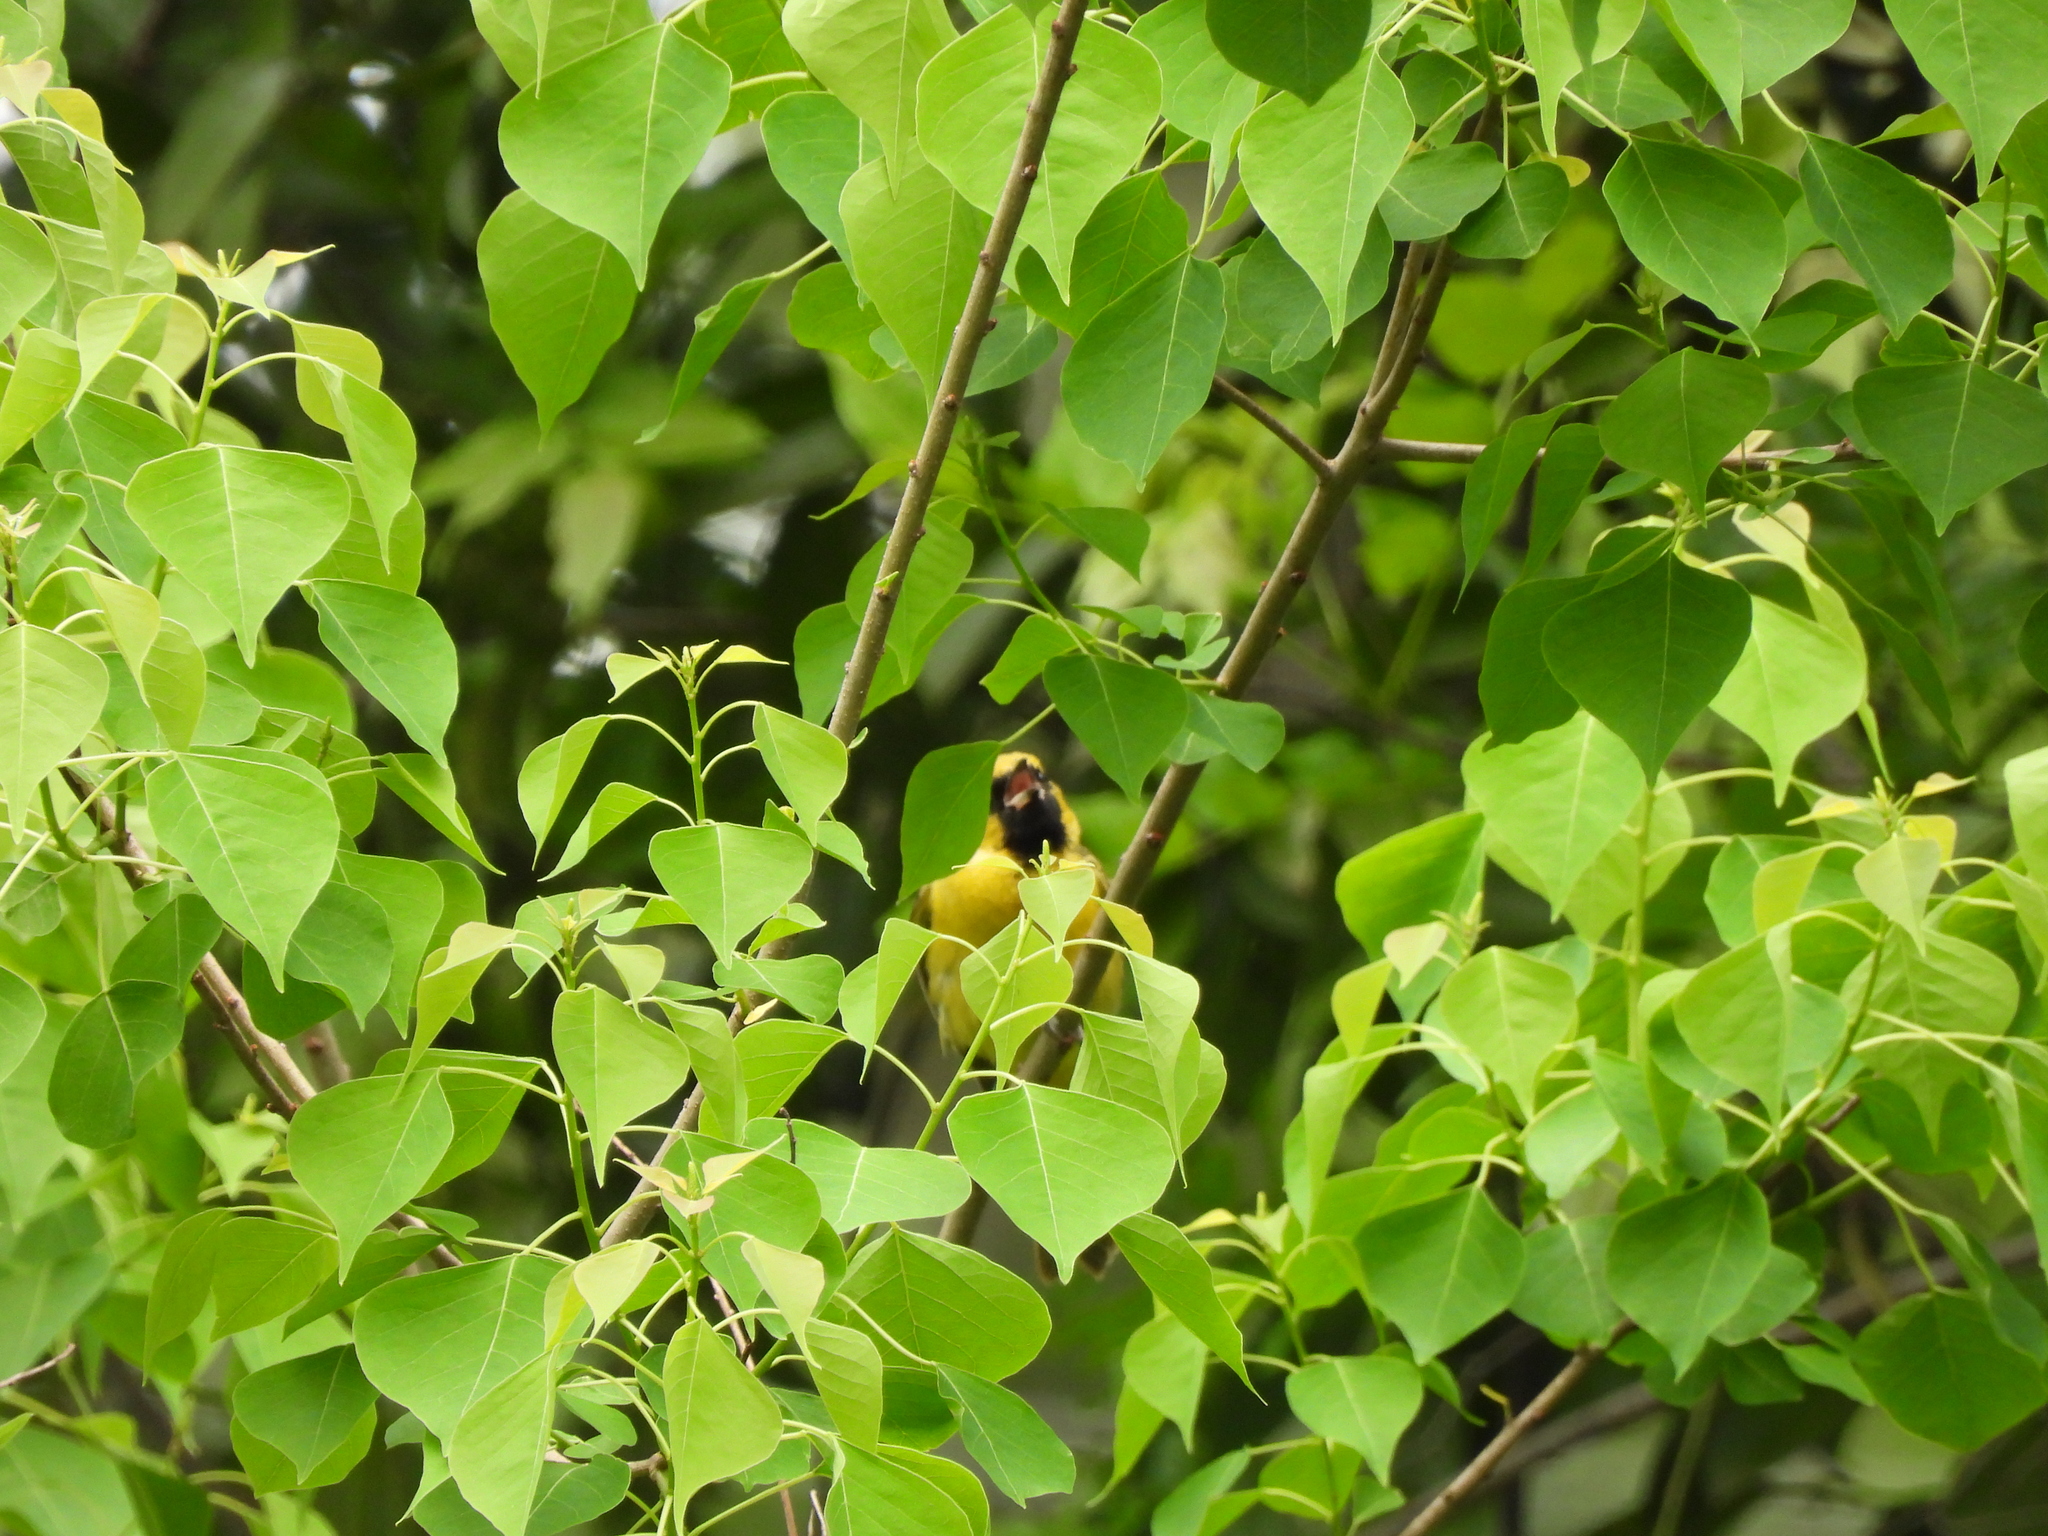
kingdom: Animalia
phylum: Chordata
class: Aves
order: Passeriformes
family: Icteridae
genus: Icterus
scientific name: Icterus spurius
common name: Orchard oriole
